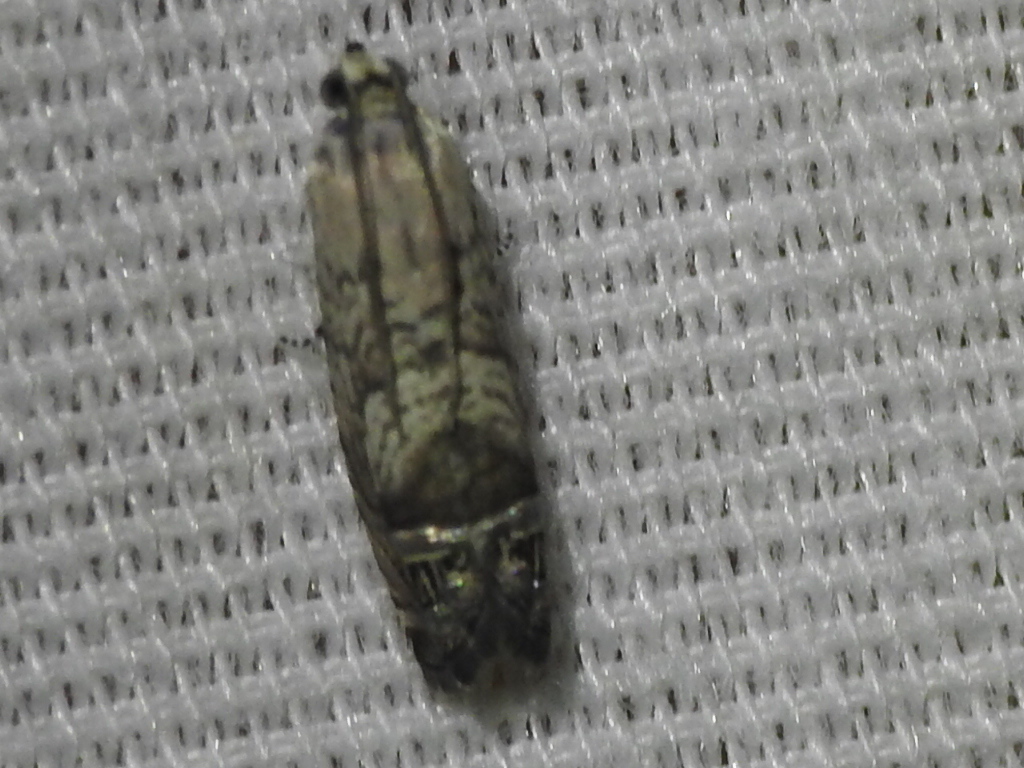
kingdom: Animalia
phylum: Arthropoda
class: Insecta
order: Lepidoptera
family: Tortricidae
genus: Ofatulena
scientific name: Ofatulena duodecemstriata
